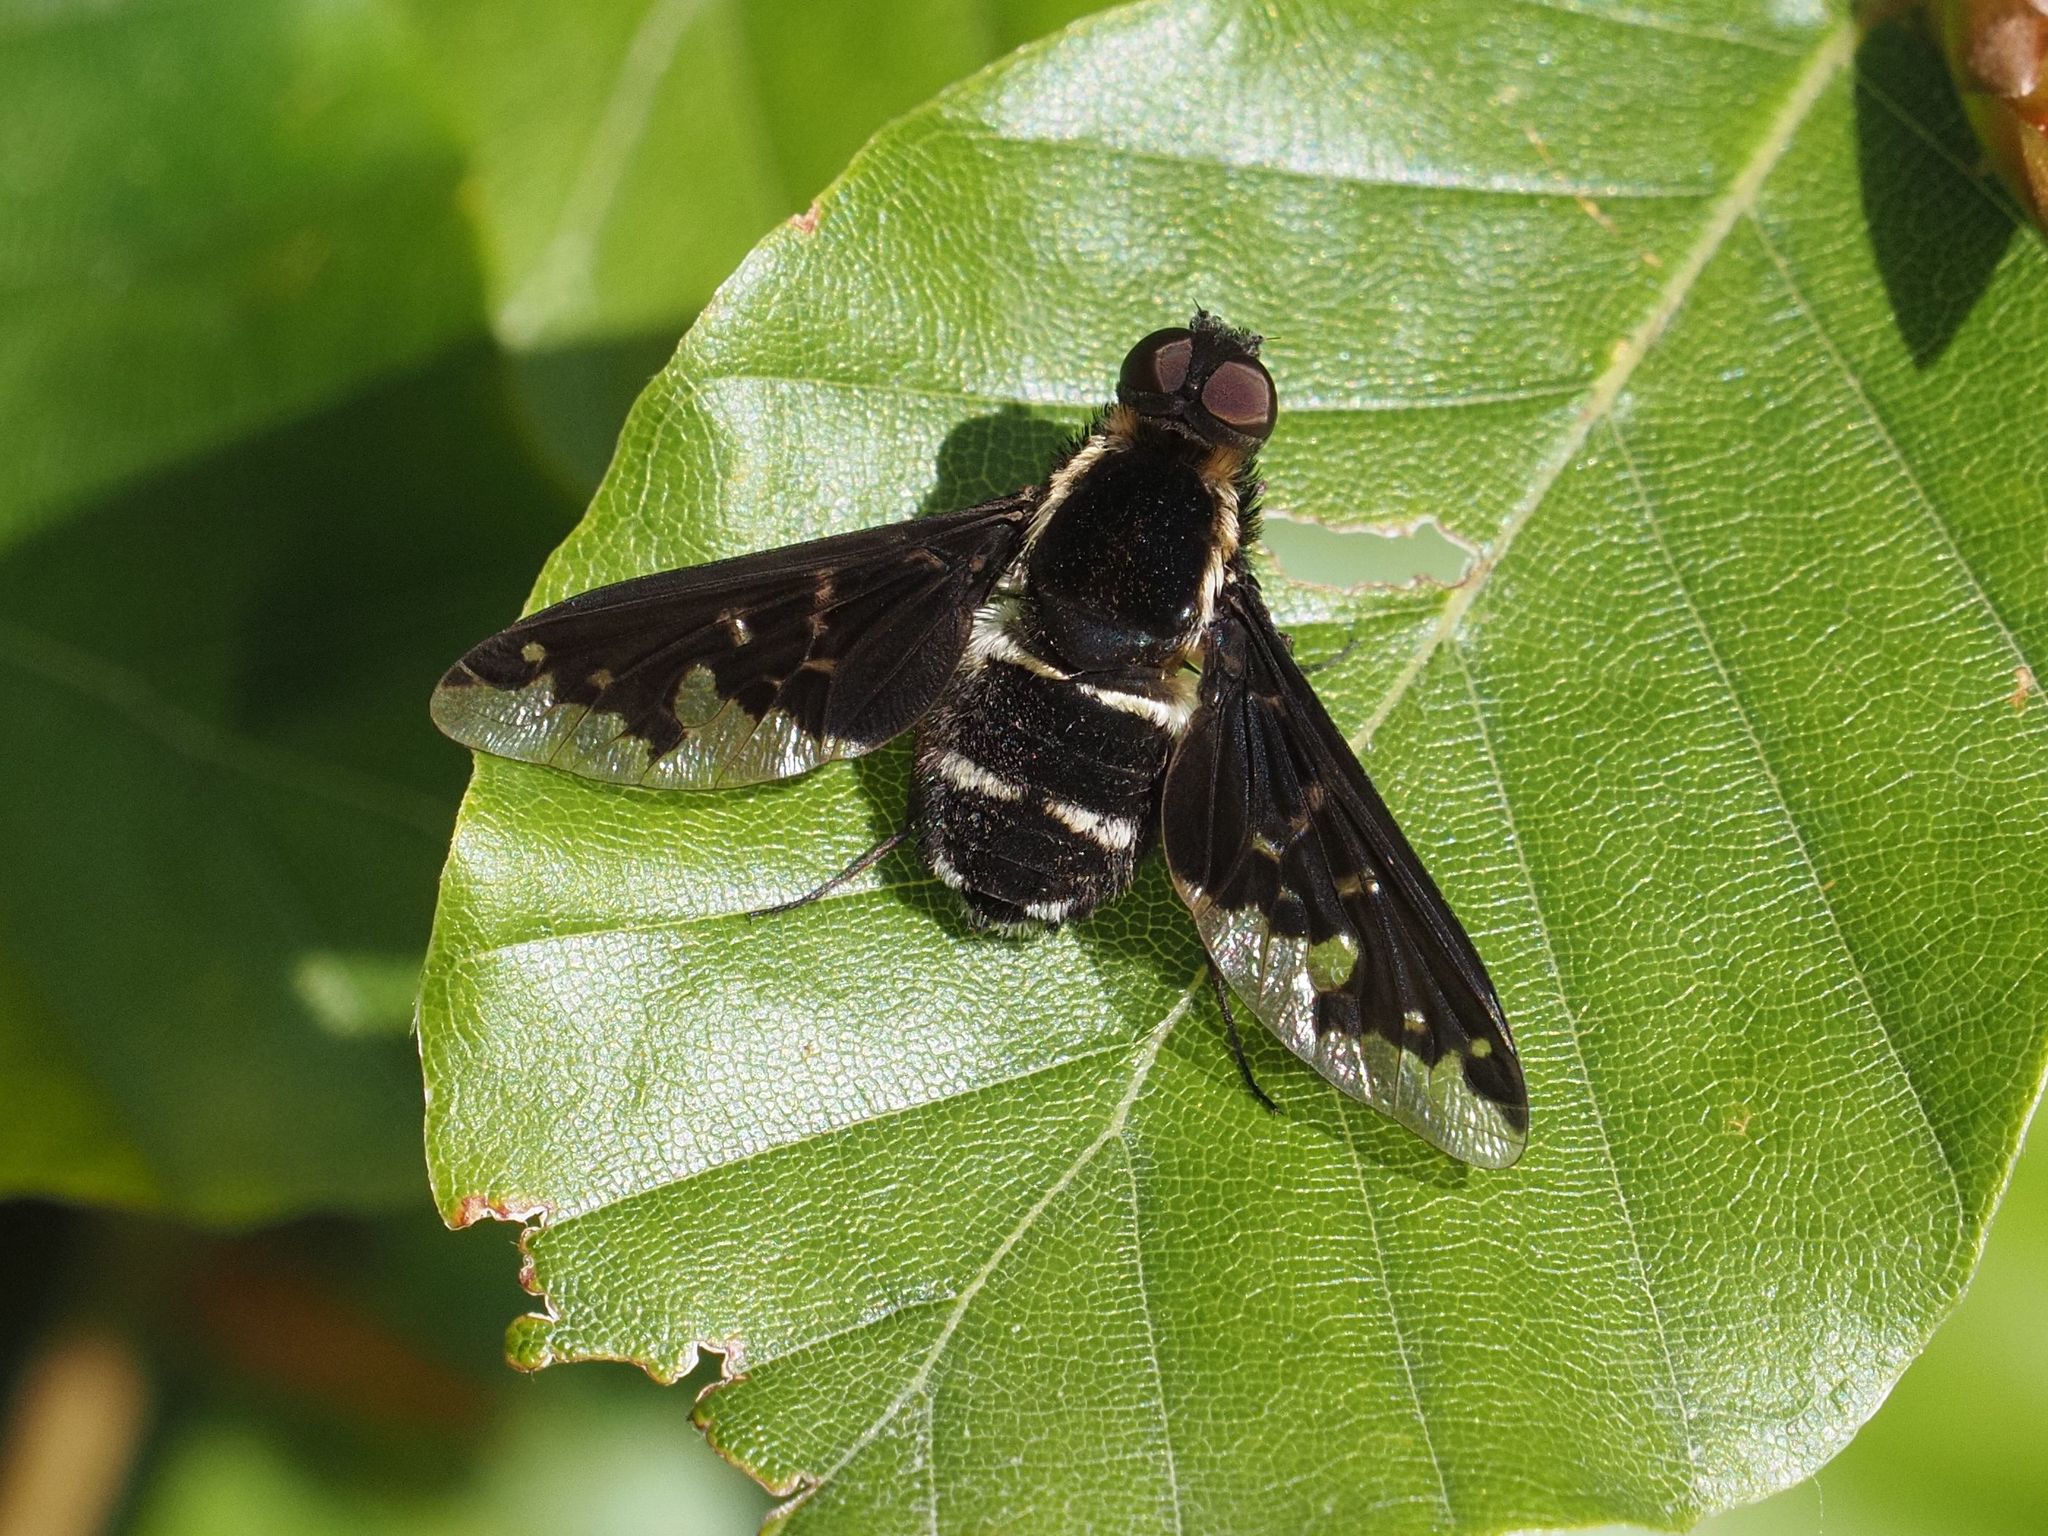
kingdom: Animalia
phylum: Arthropoda
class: Insecta
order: Diptera
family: Bombyliidae
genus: Hemipenthes
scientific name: Hemipenthes maura
